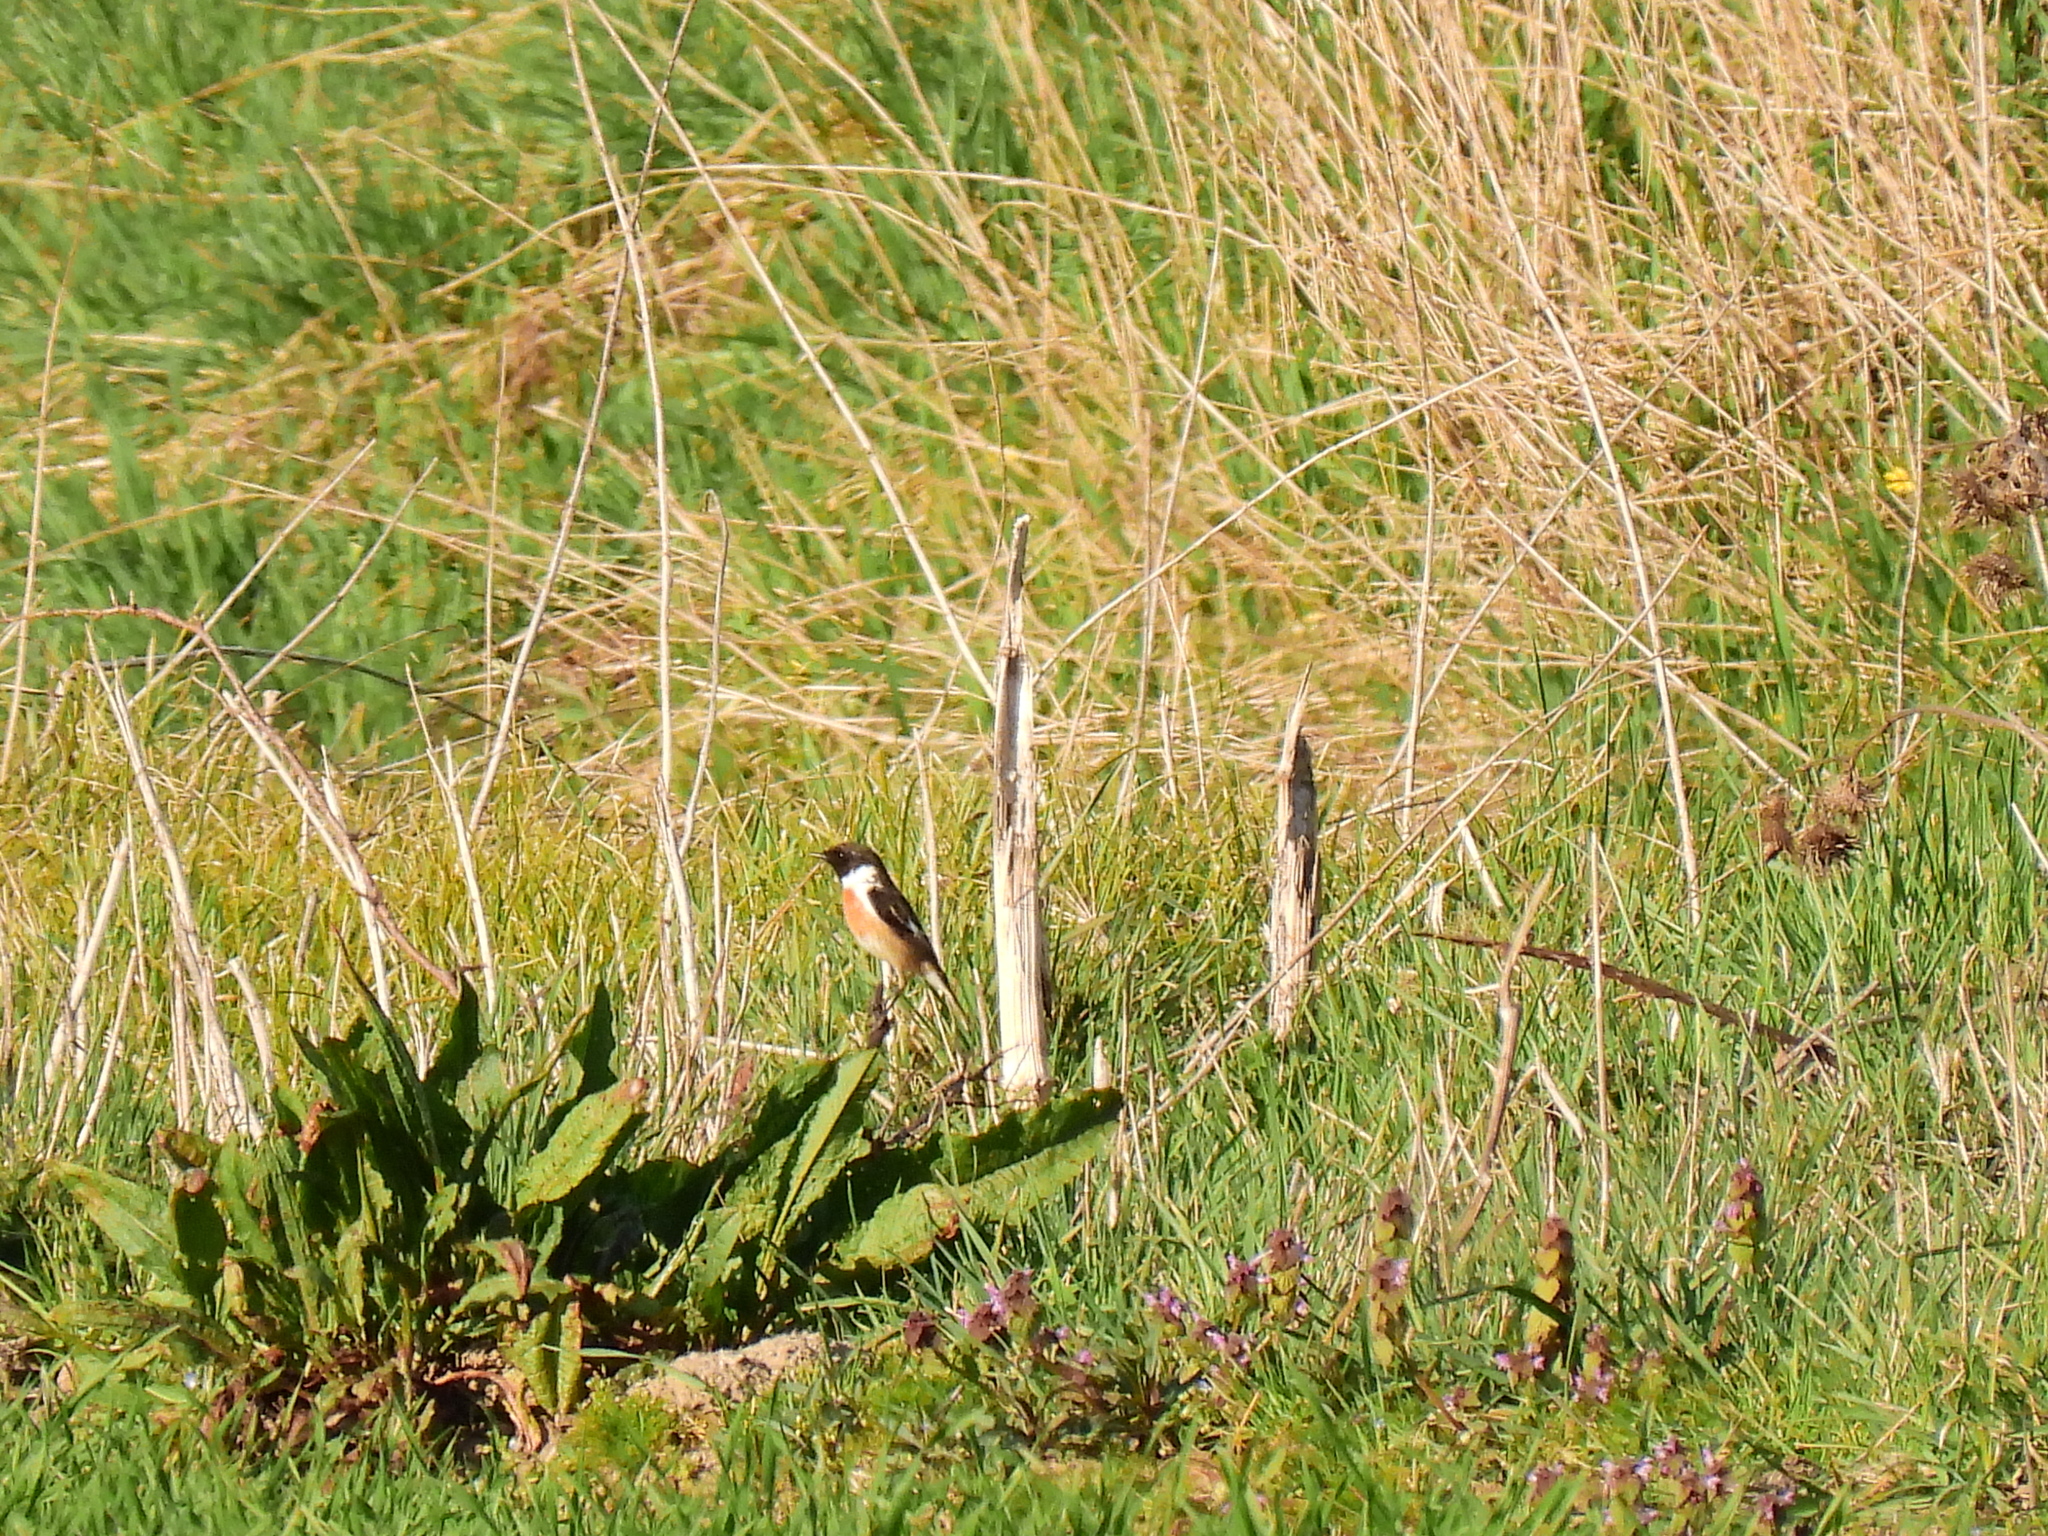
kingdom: Animalia
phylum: Chordata
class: Aves
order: Passeriformes
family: Muscicapidae
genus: Saxicola
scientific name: Saxicola rubicola
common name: European stonechat
